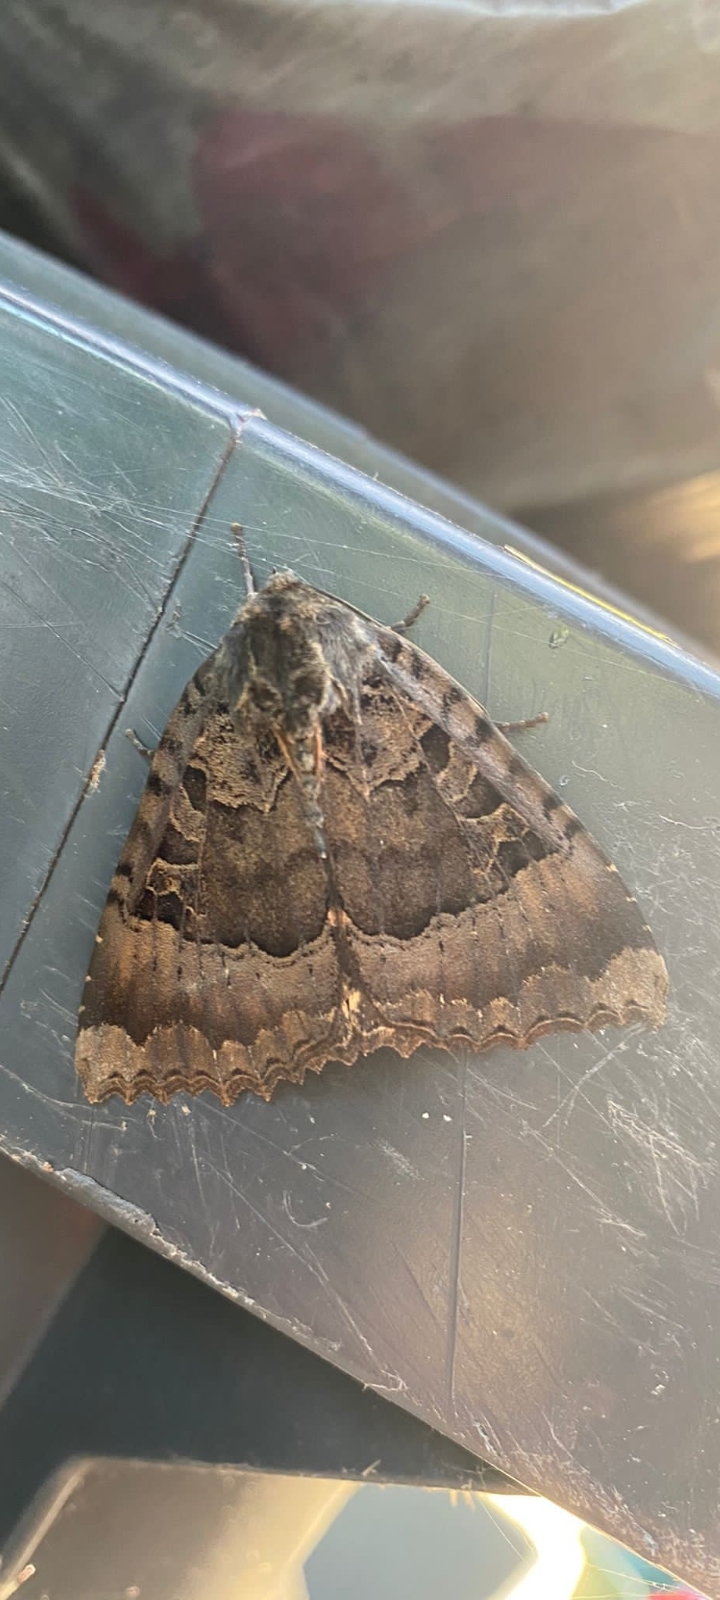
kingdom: Animalia
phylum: Arthropoda
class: Insecta
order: Lepidoptera
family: Noctuidae
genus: Mormo
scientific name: Mormo maura
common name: Old lady
